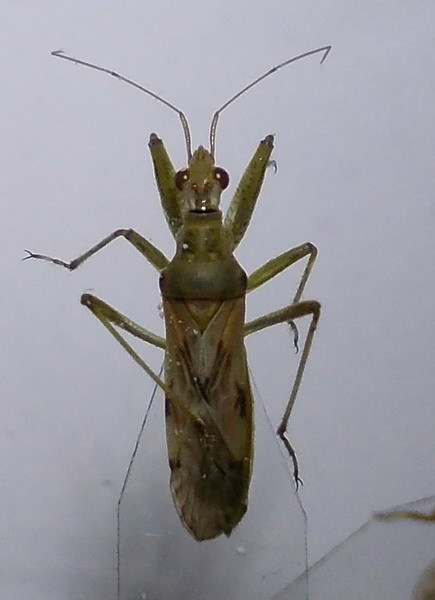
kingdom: Animalia
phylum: Arthropoda
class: Insecta
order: Hemiptera
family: Nabidae
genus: Nabis
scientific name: Nabis pallidus
